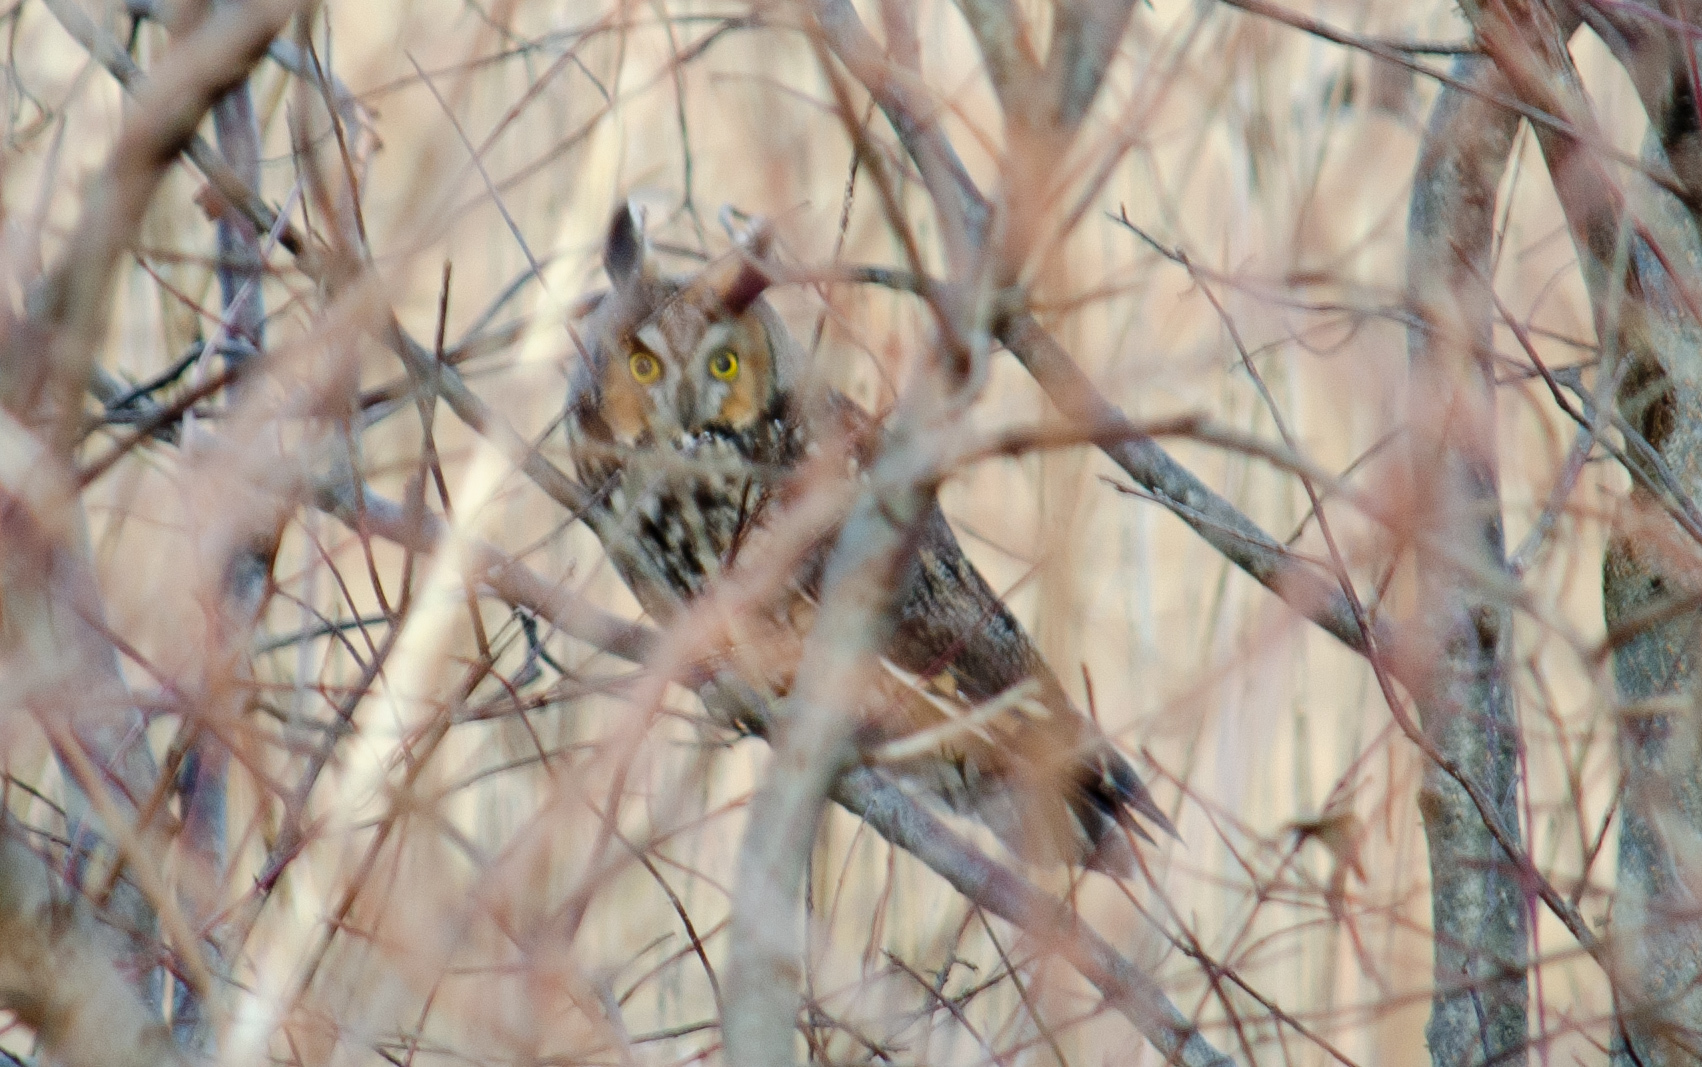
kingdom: Animalia
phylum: Chordata
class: Aves
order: Strigiformes
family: Strigidae
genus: Asio
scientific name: Asio otus
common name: Long-eared owl
